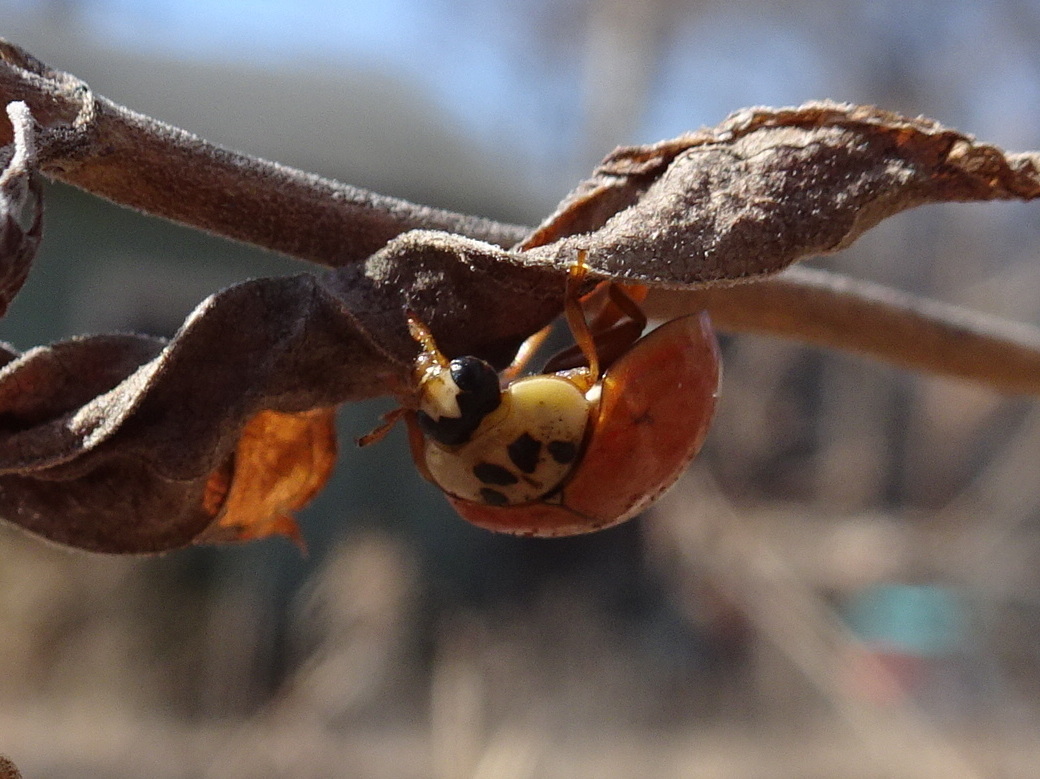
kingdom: Animalia
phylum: Arthropoda
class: Insecta
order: Coleoptera
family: Coccinellidae
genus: Harmonia
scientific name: Harmonia axyridis
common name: Harlequin ladybird
